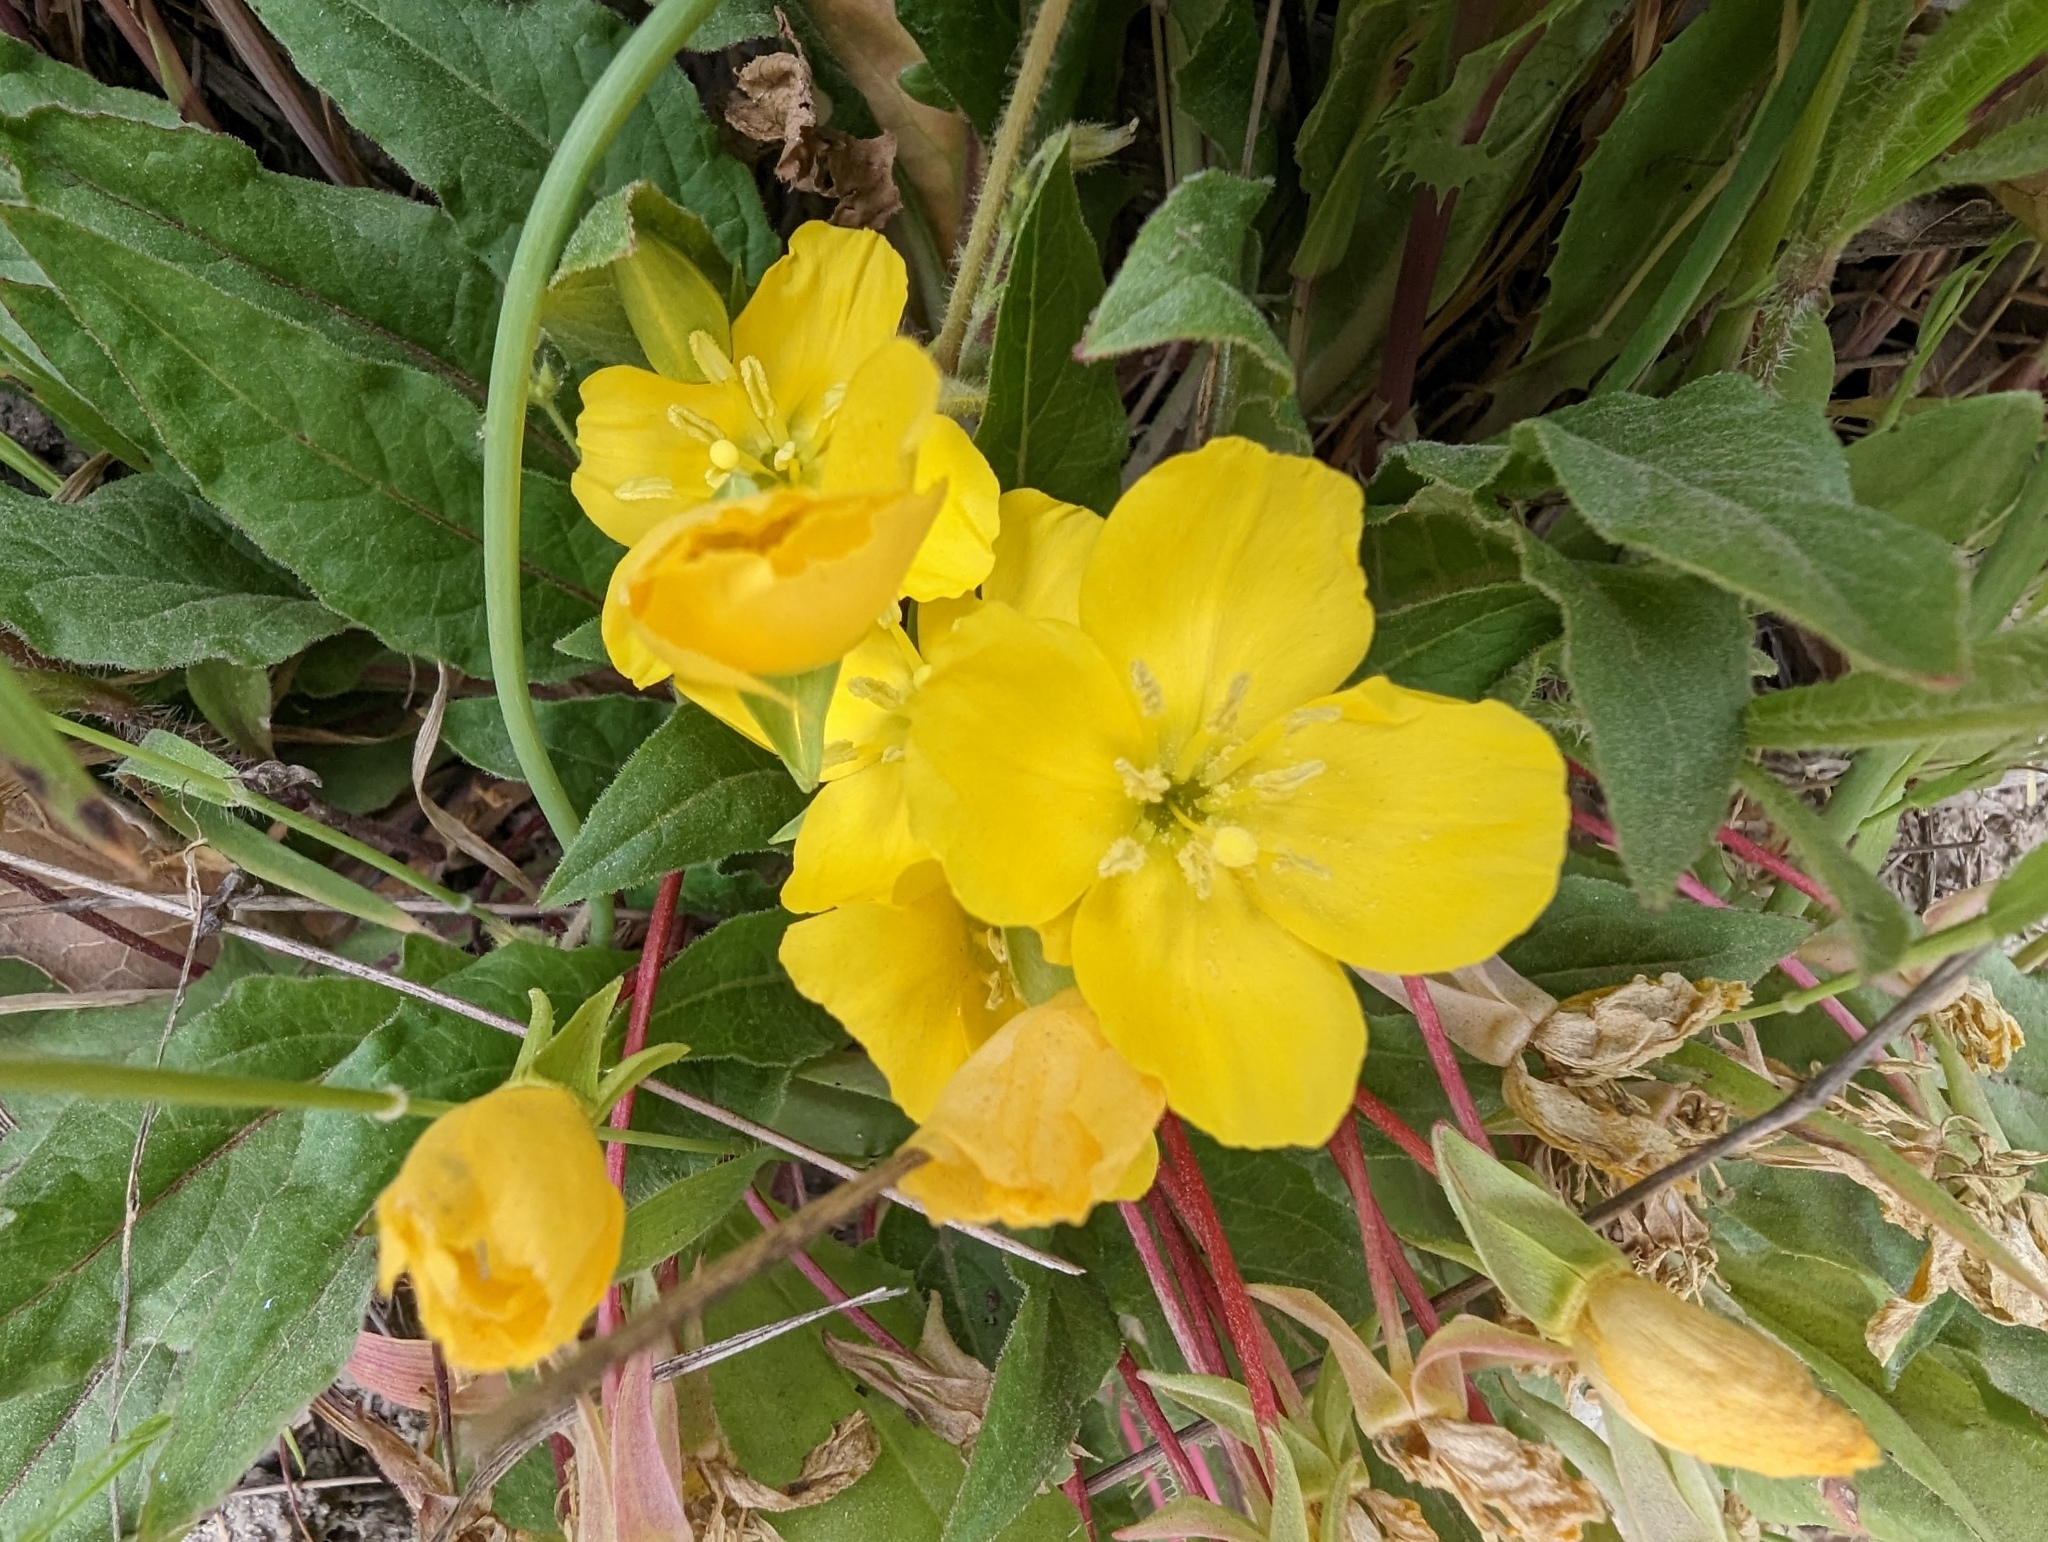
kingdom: Plantae
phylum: Tracheophyta
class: Magnoliopsida
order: Myrtales
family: Onagraceae
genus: Taraxia
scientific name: Taraxia ovata
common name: Goldeneggs
